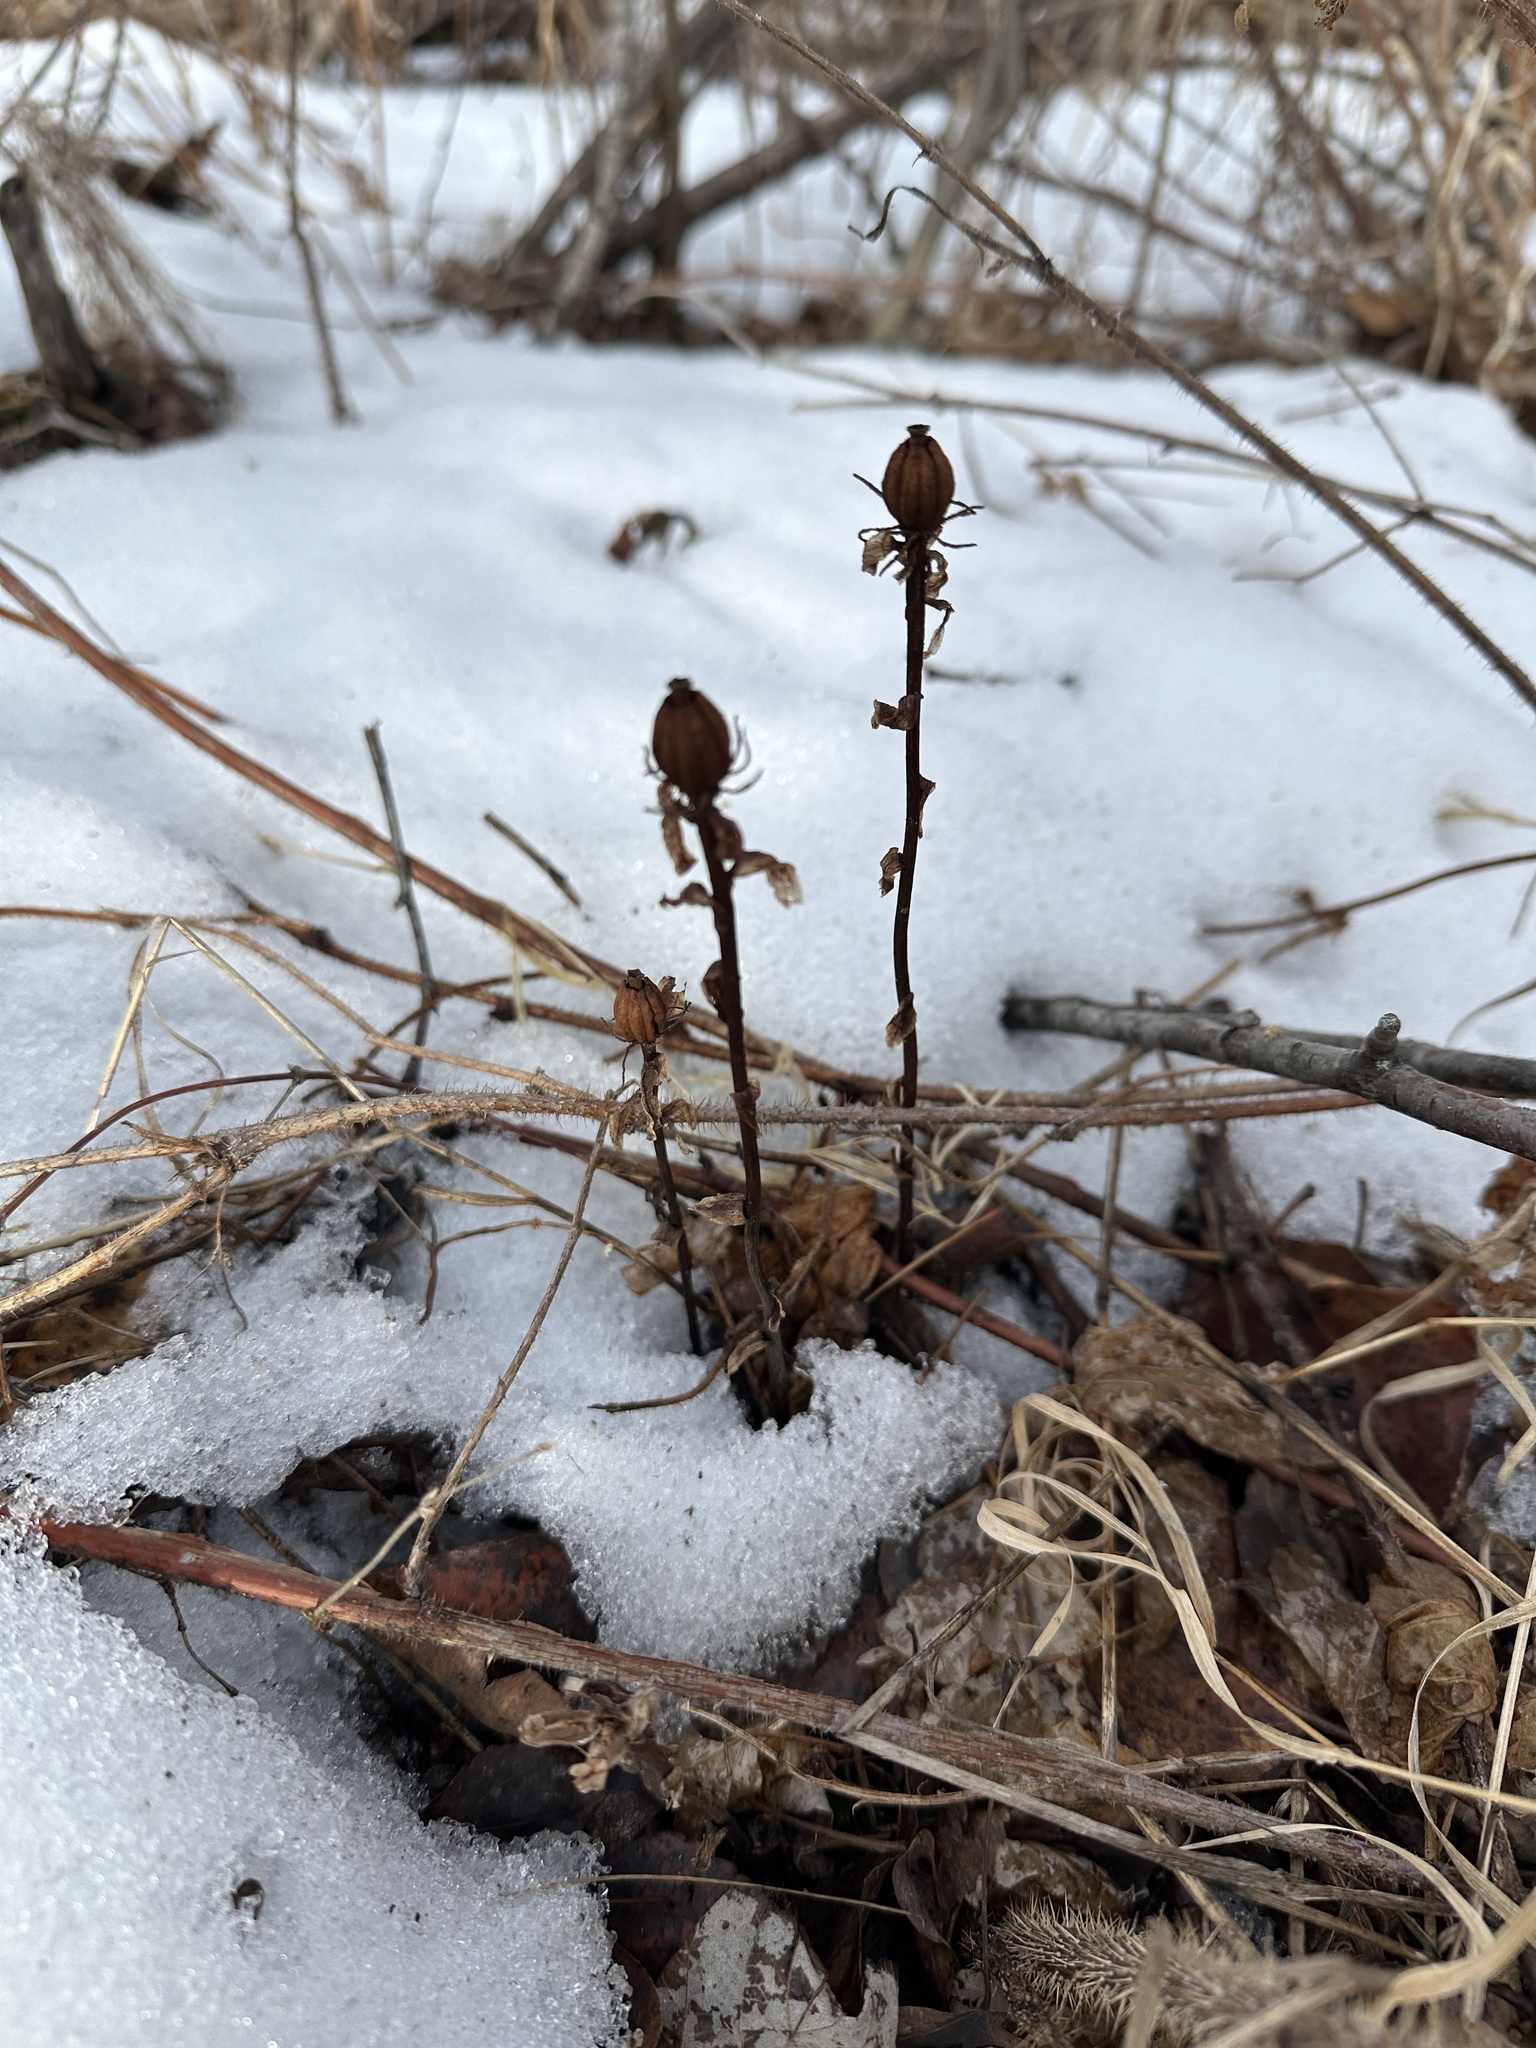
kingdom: Plantae
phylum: Tracheophyta
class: Magnoliopsida
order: Ericales
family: Ericaceae
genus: Monotropa
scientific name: Monotropa uniflora
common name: Convulsion root
